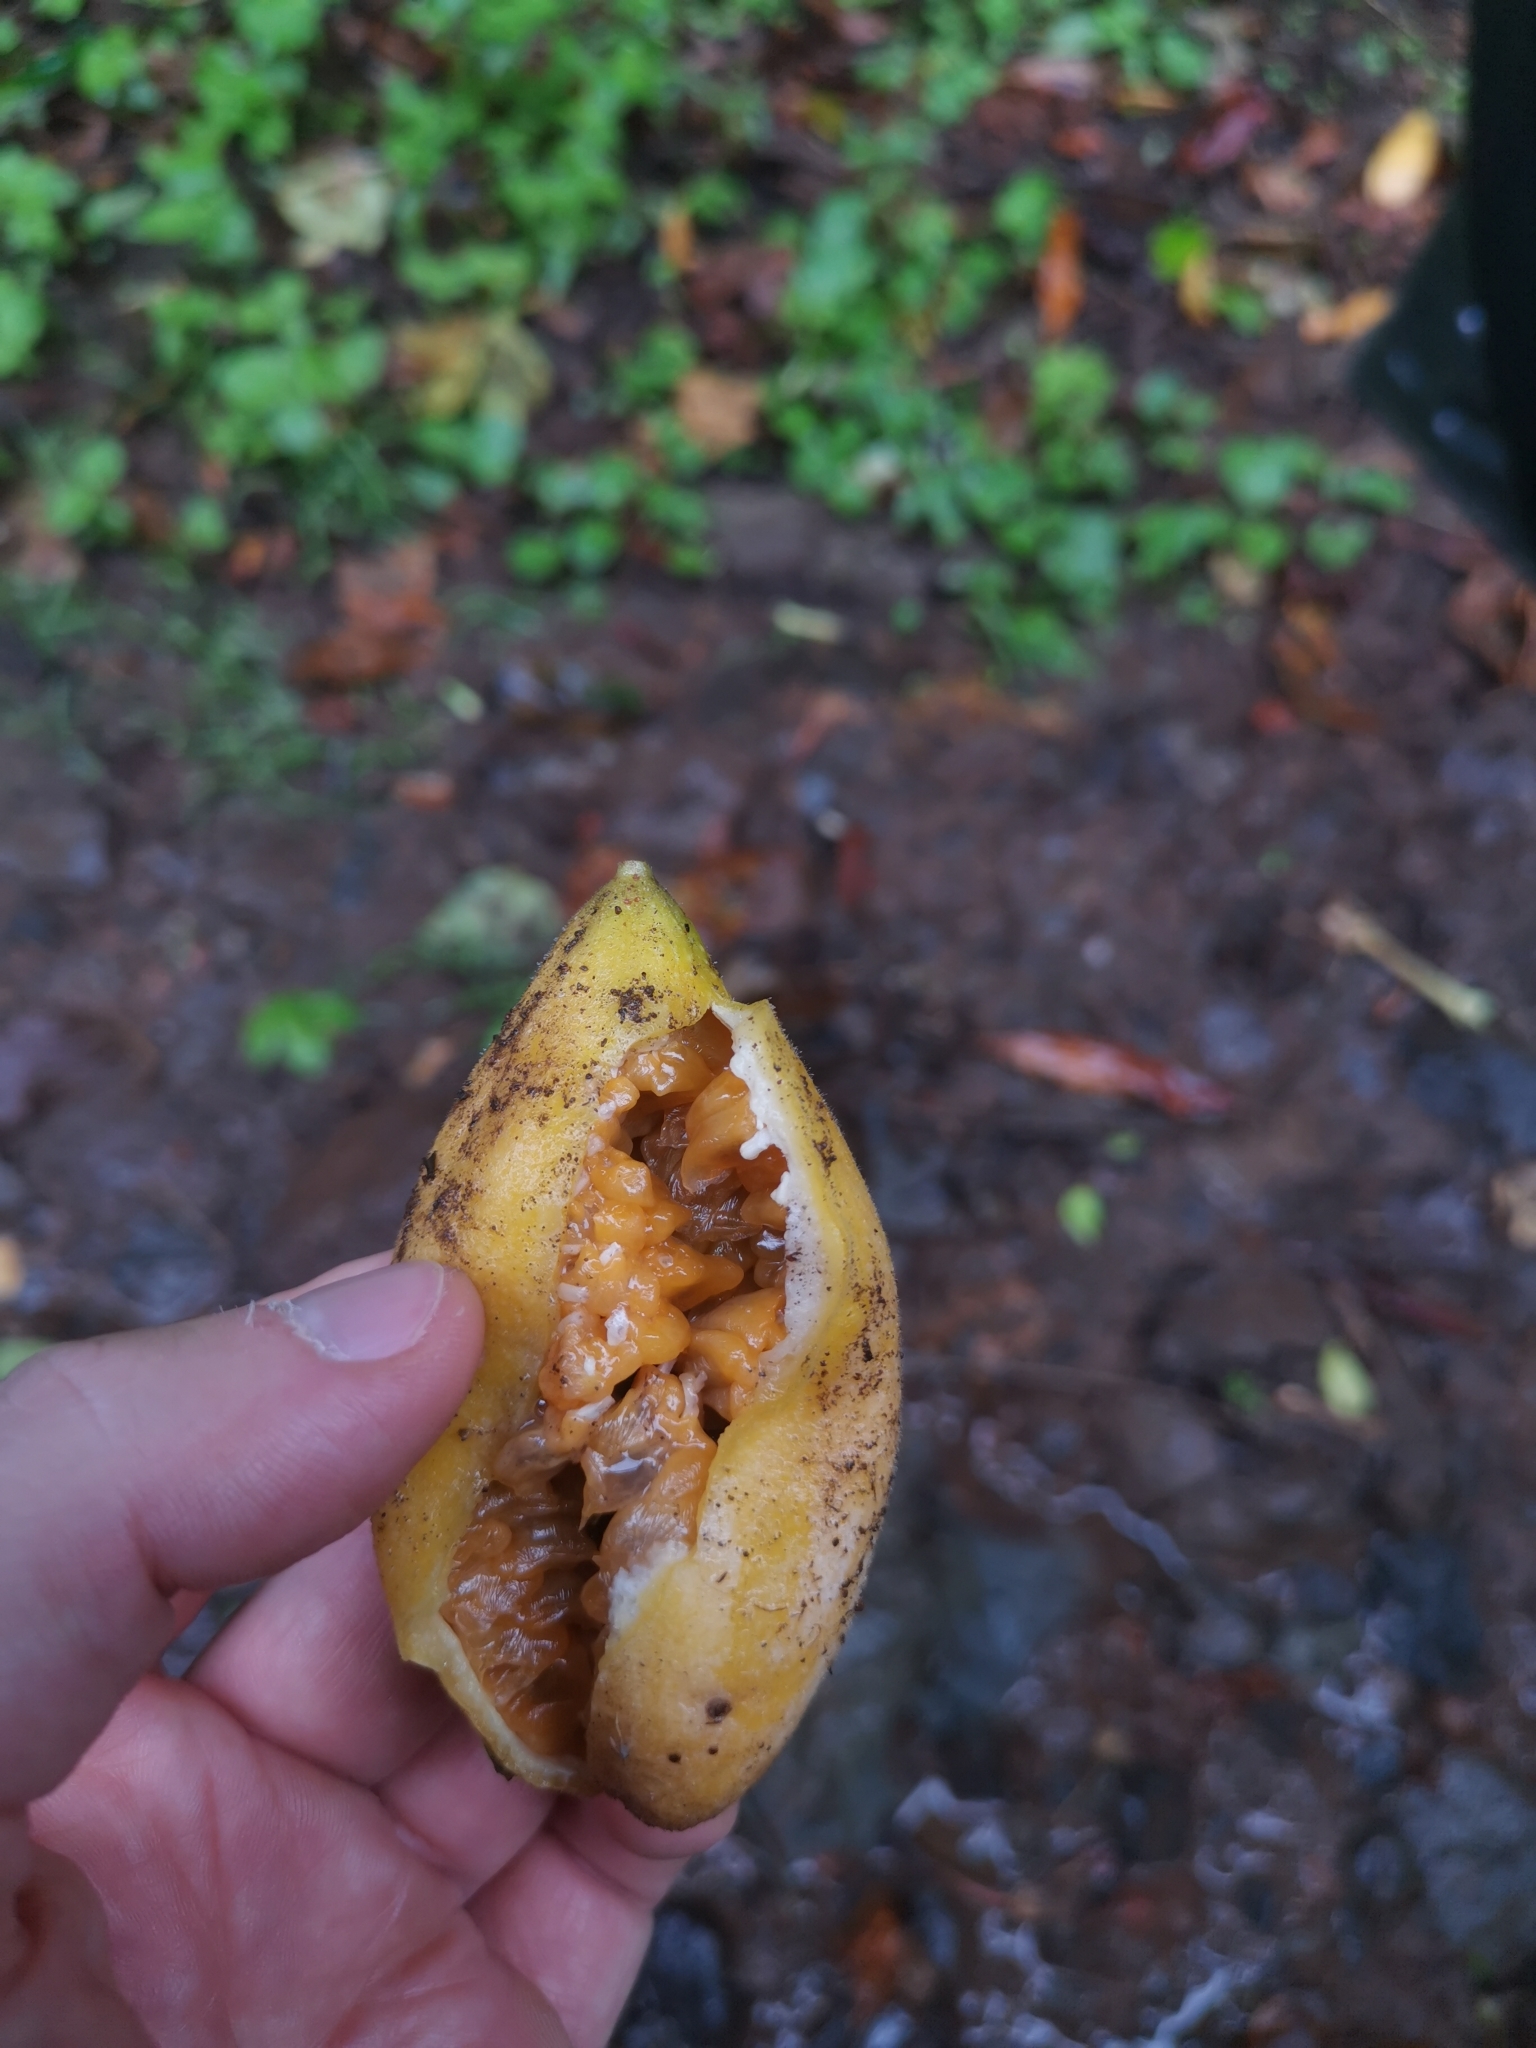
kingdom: Plantae
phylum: Tracheophyta
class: Magnoliopsida
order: Malpighiales
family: Passifloraceae
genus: Passiflora
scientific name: Passiflora tarminiana
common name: Banana poka
